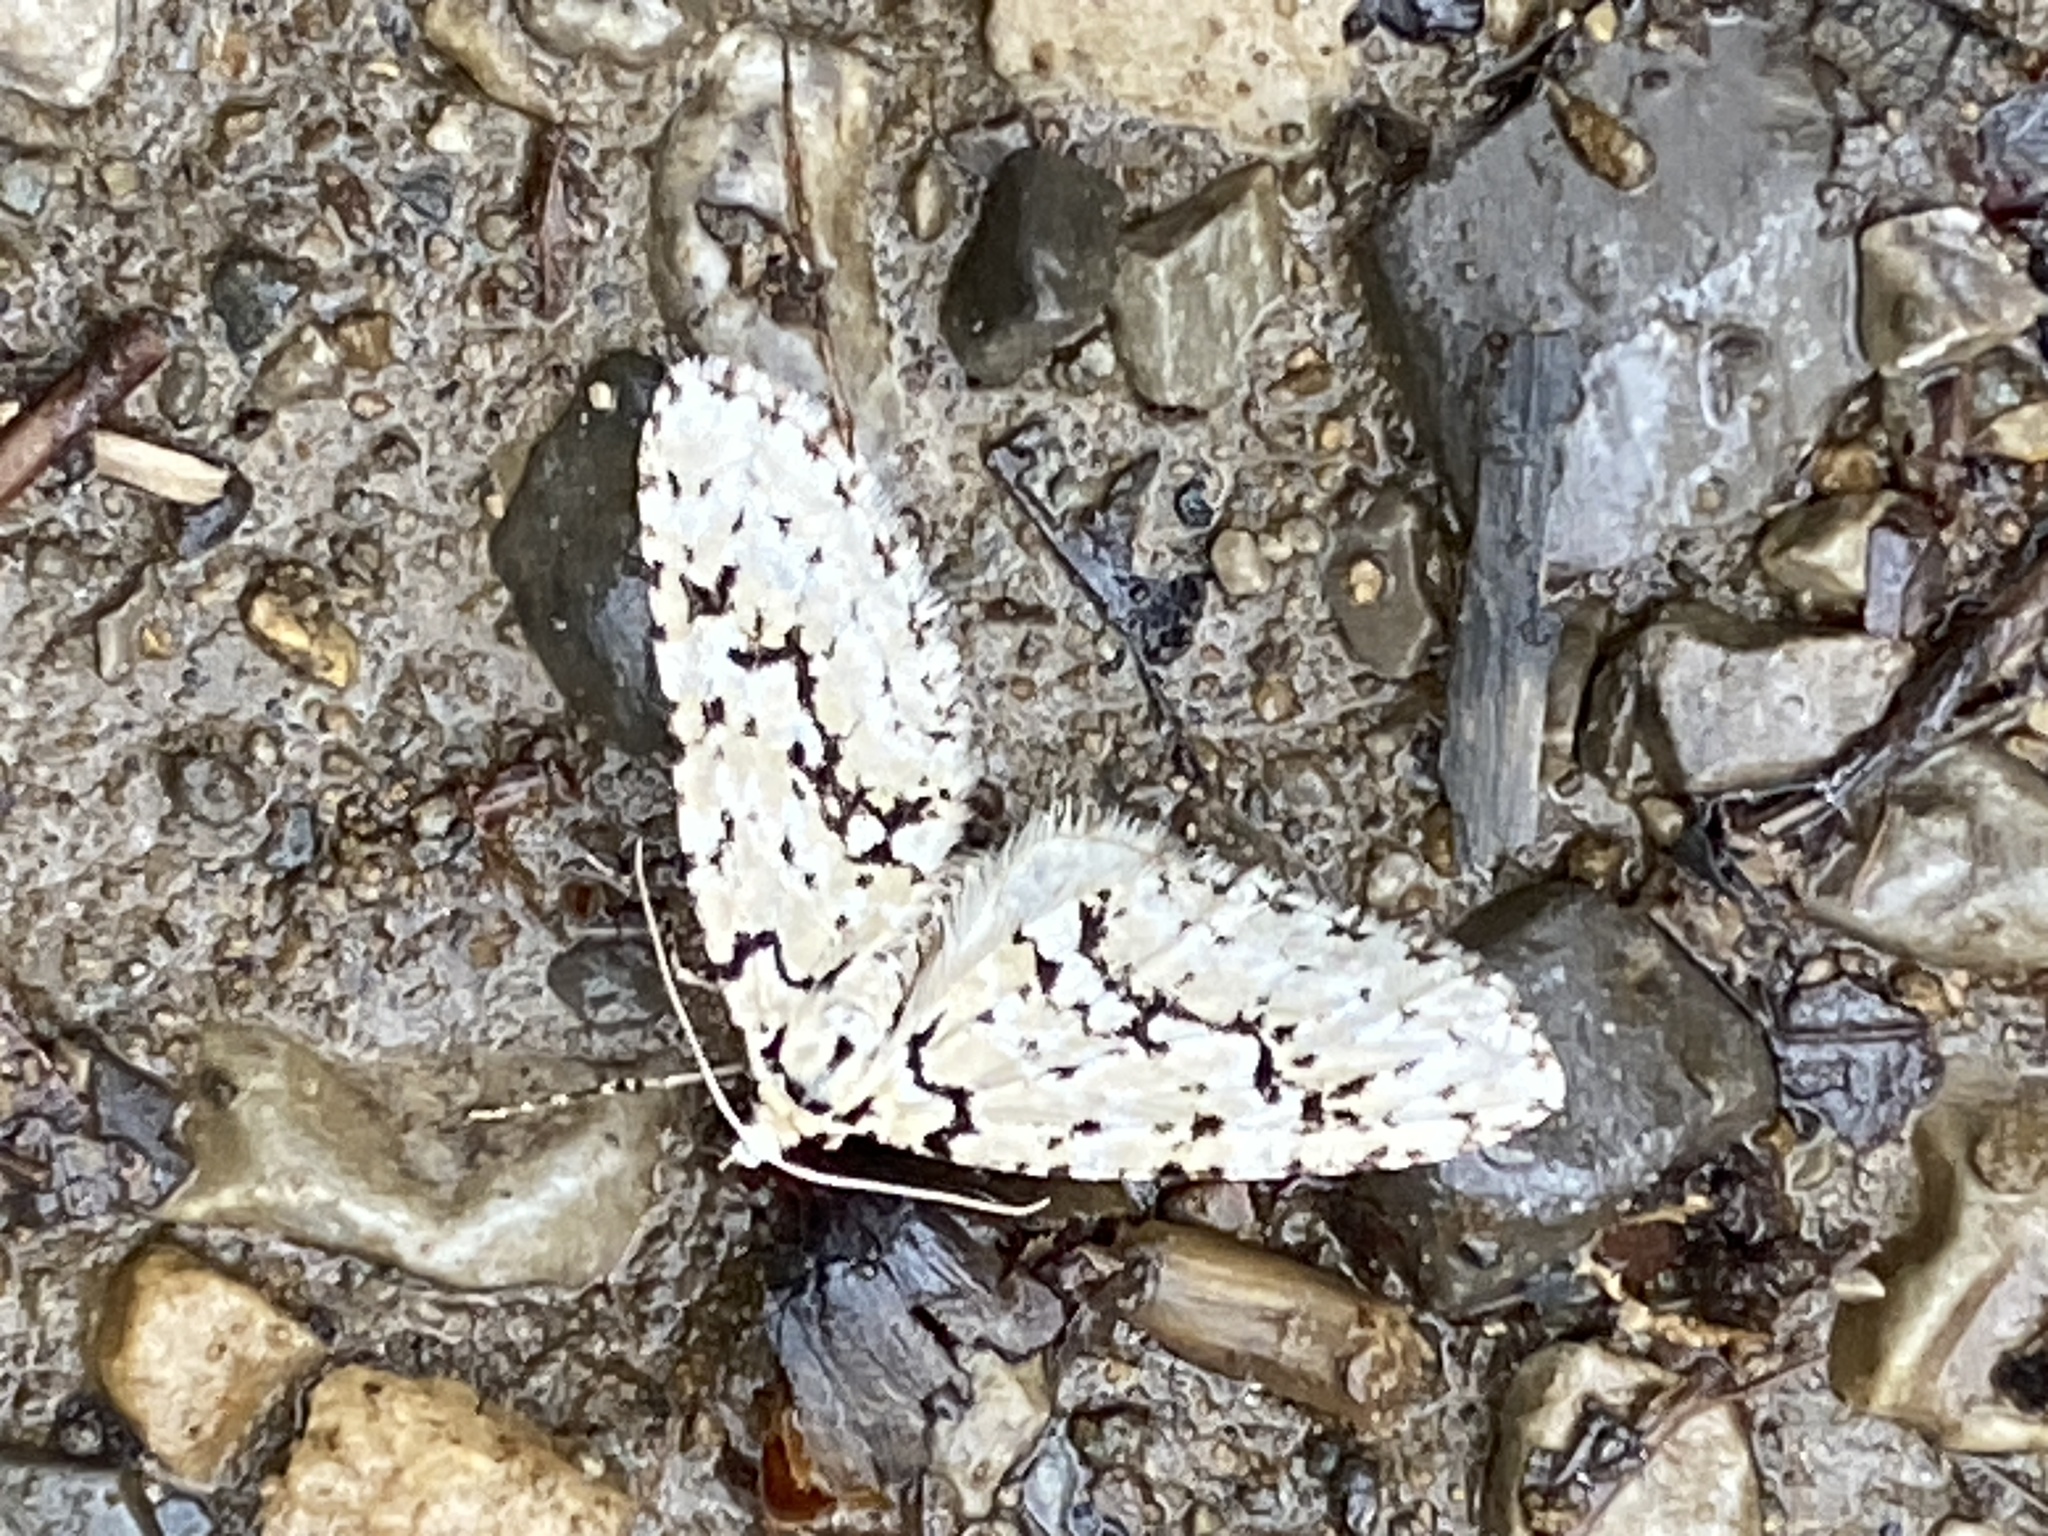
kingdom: Animalia
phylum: Arthropoda
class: Insecta
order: Lepidoptera
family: Geometridae
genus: Cladara
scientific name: Cladara atroliturata
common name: Scribbler
